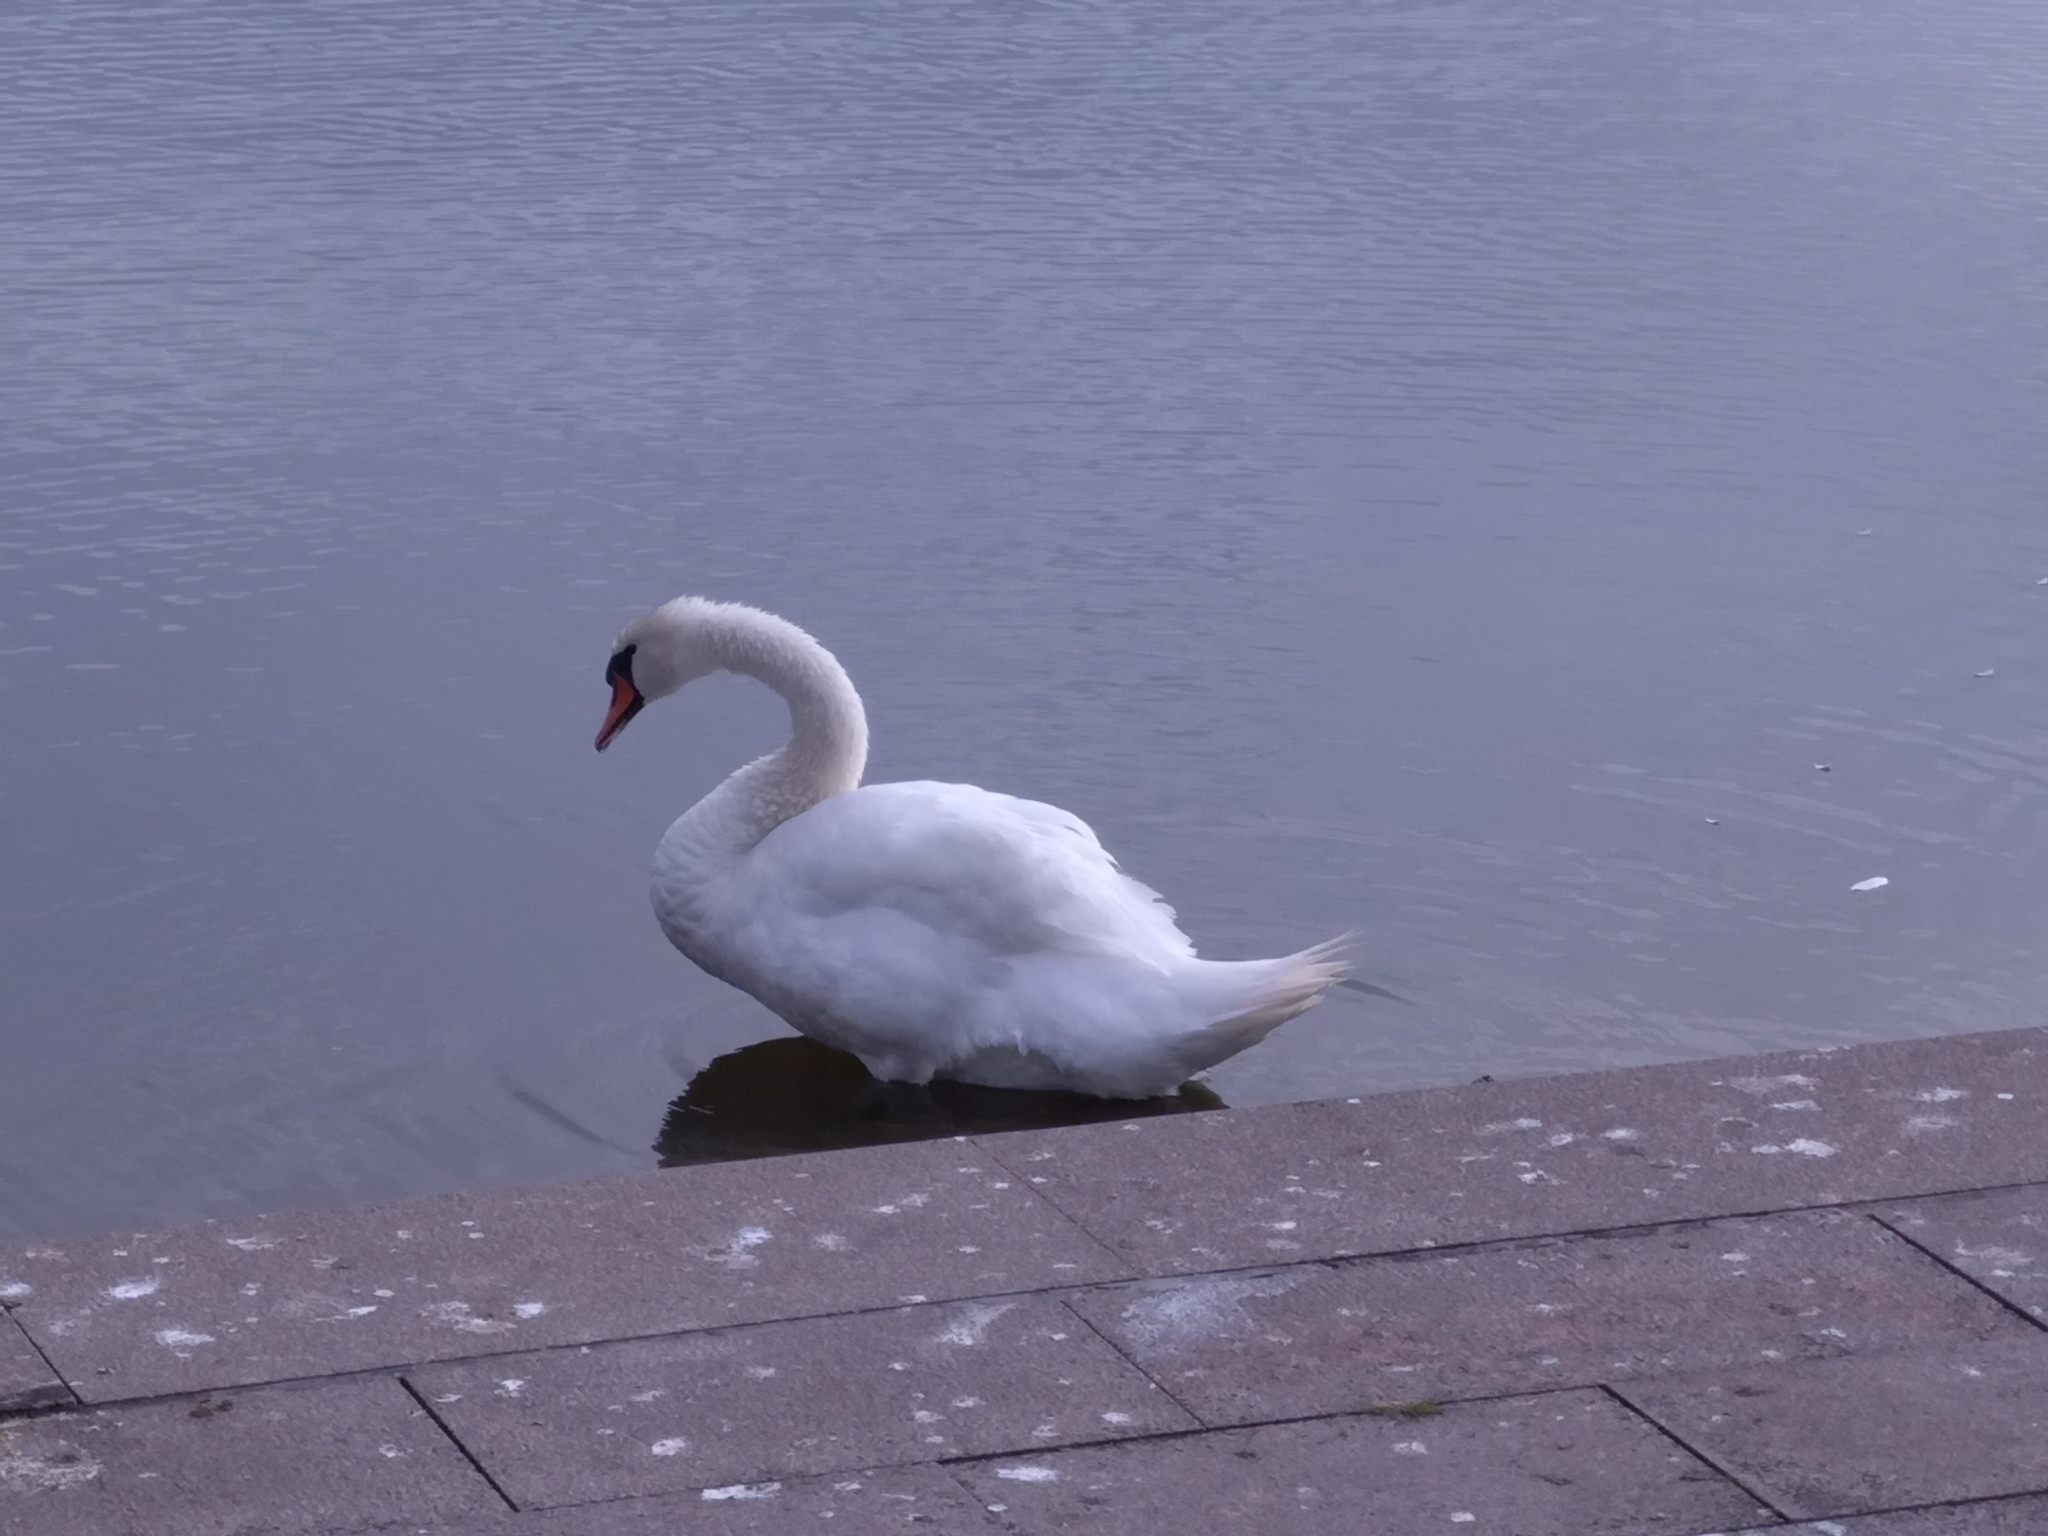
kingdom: Animalia
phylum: Chordata
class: Aves
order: Anseriformes
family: Anatidae
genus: Cygnus
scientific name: Cygnus olor
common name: Mute swan
